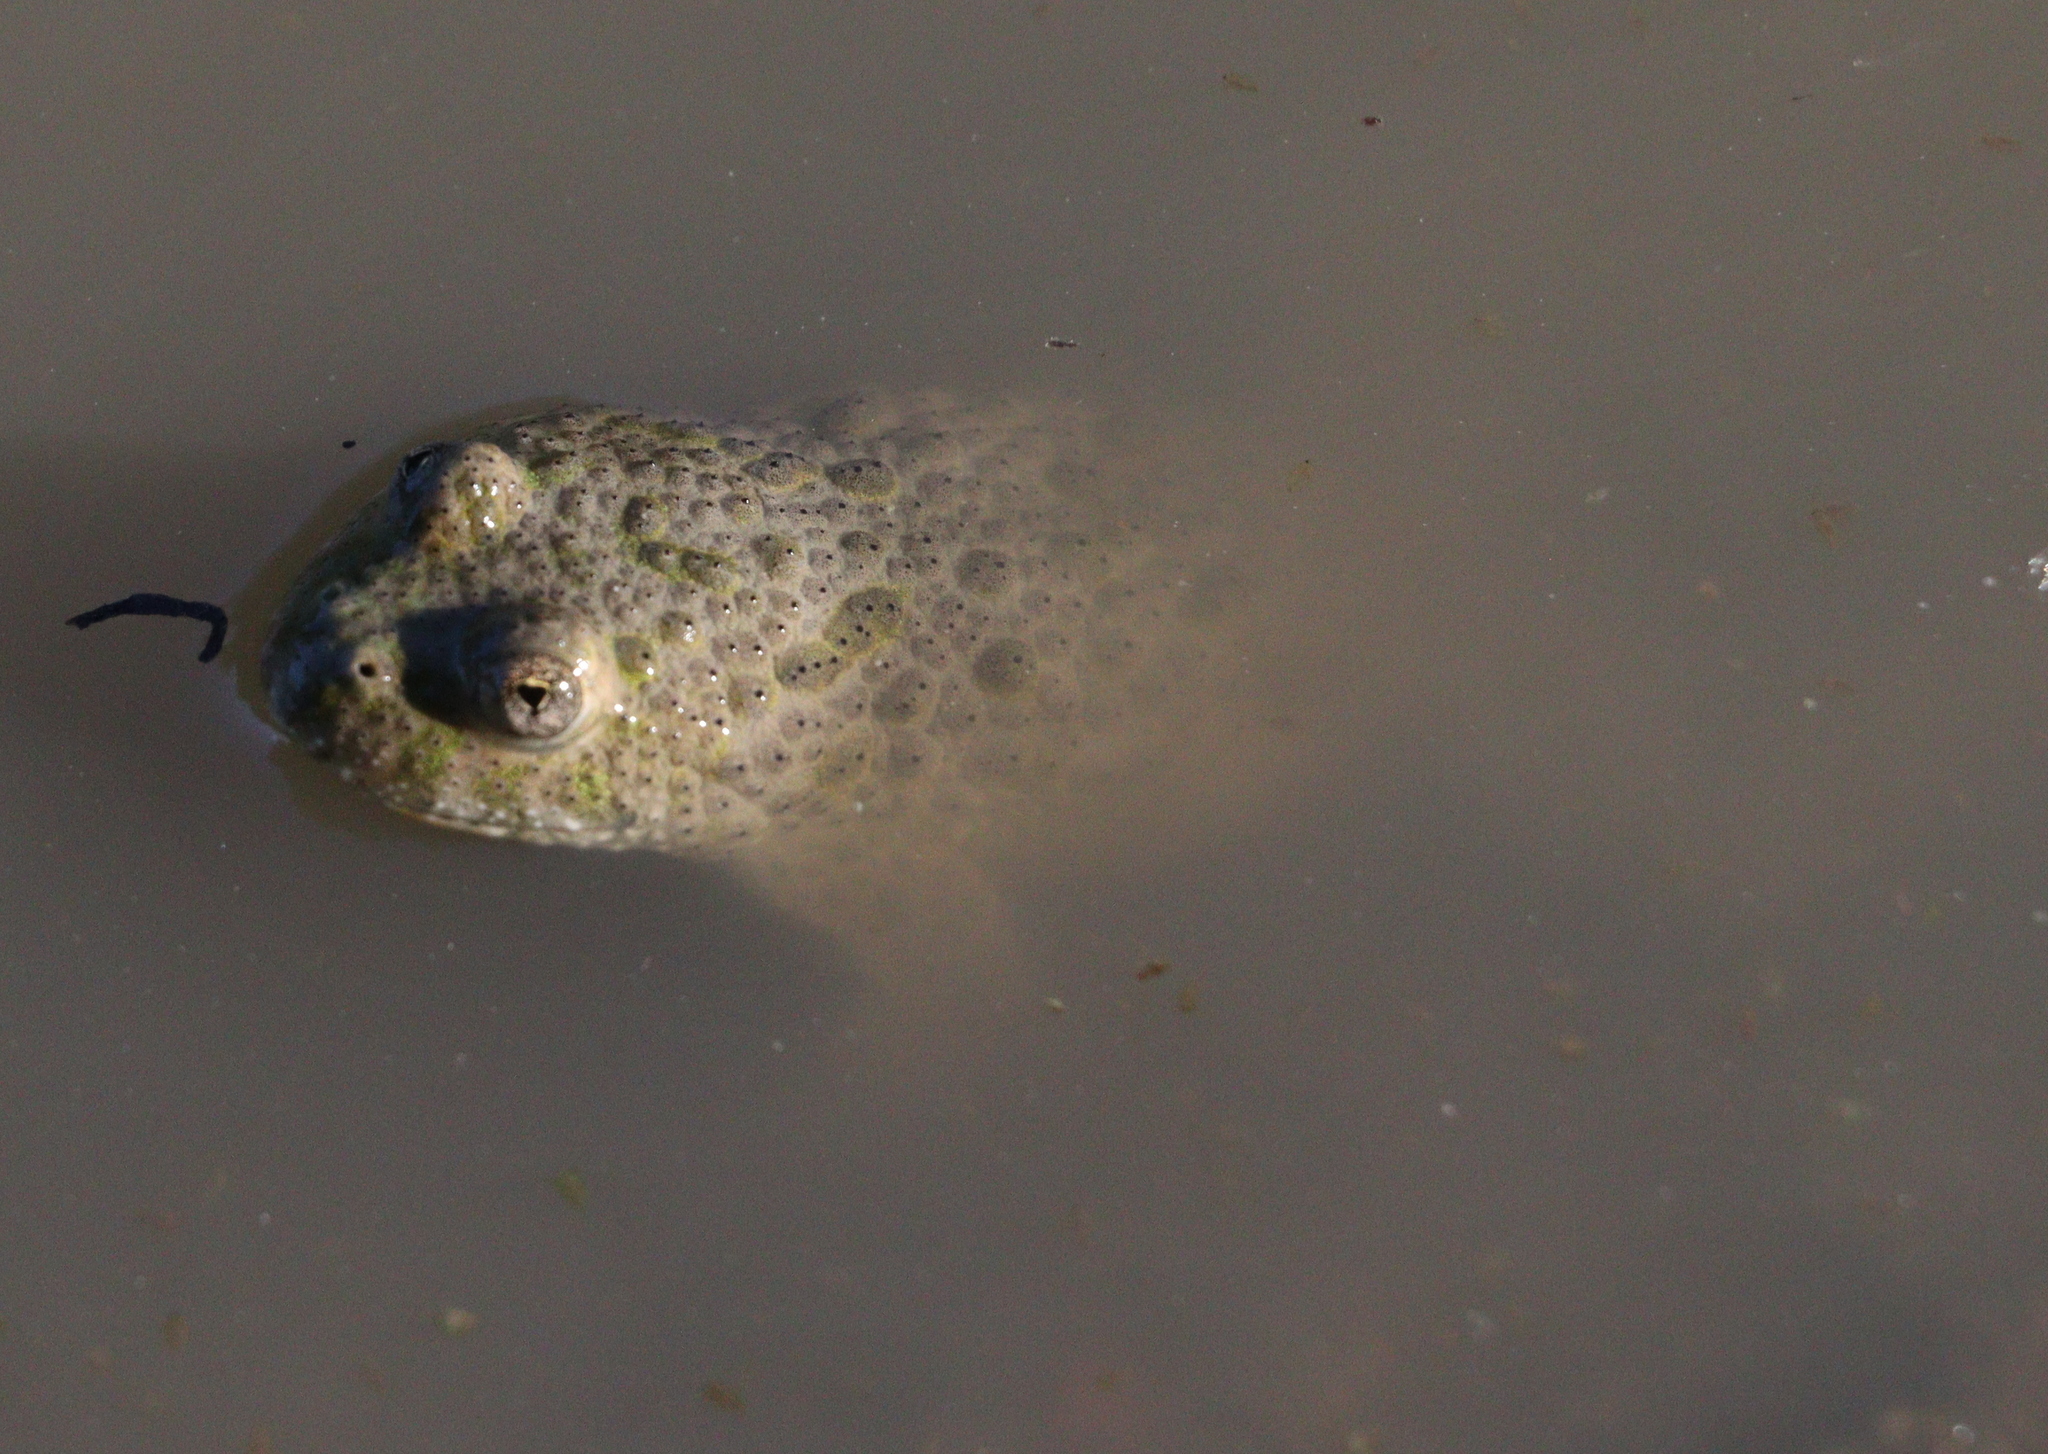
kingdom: Animalia
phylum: Chordata
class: Amphibia
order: Anura
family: Bombinatoridae
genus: Bombina
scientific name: Bombina variegata
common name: Yellow-bellied toad
